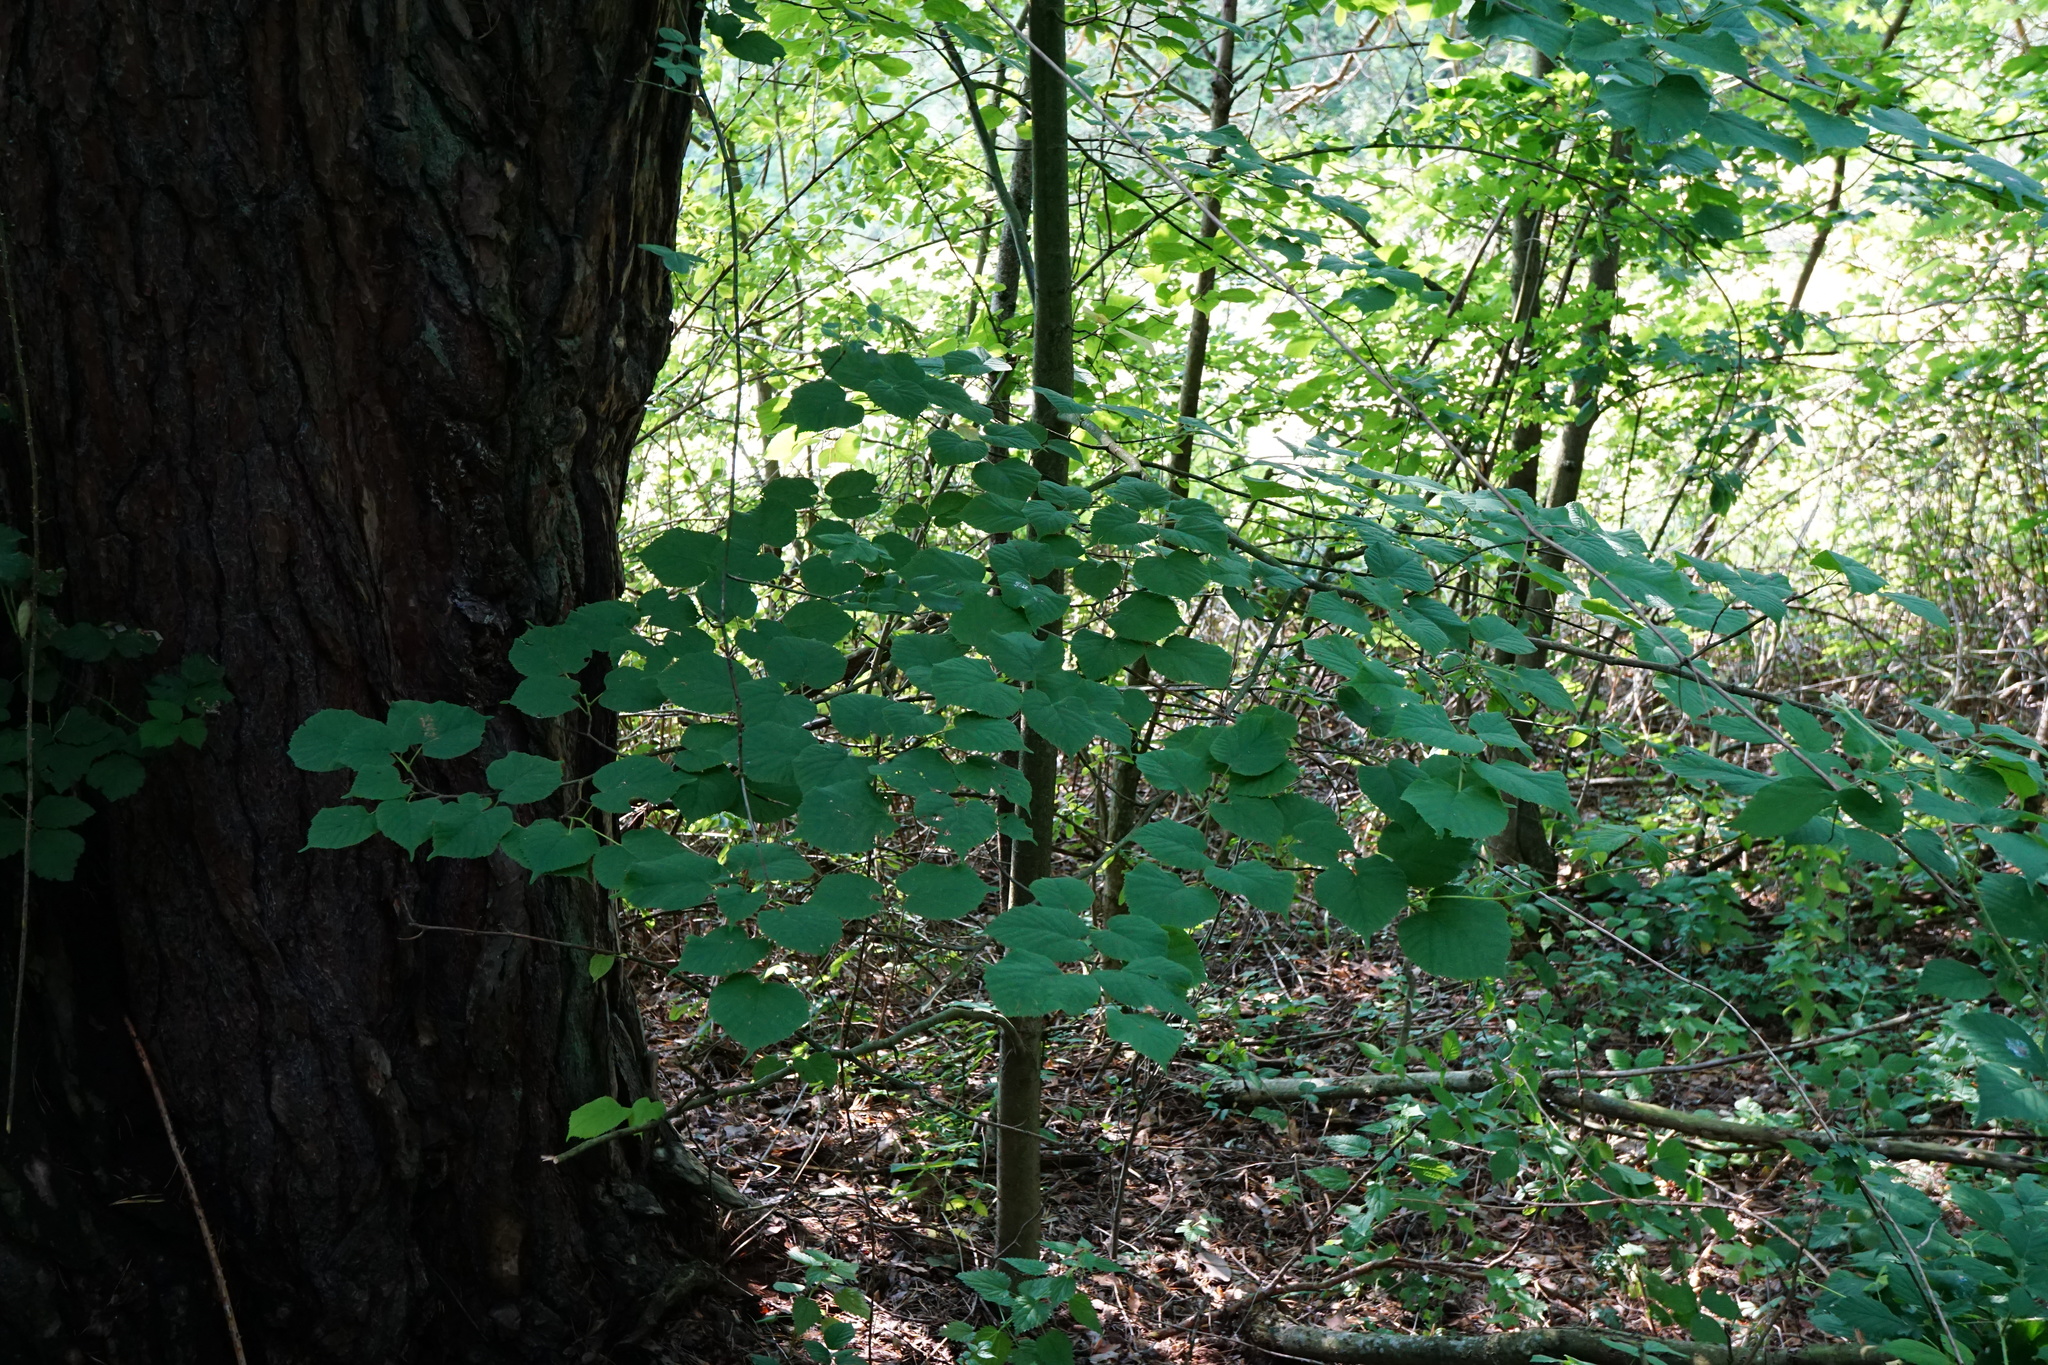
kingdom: Plantae
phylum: Tracheophyta
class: Magnoliopsida
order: Malvales
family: Malvaceae
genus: Tilia
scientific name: Tilia platyphyllos
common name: Large-leaved lime
